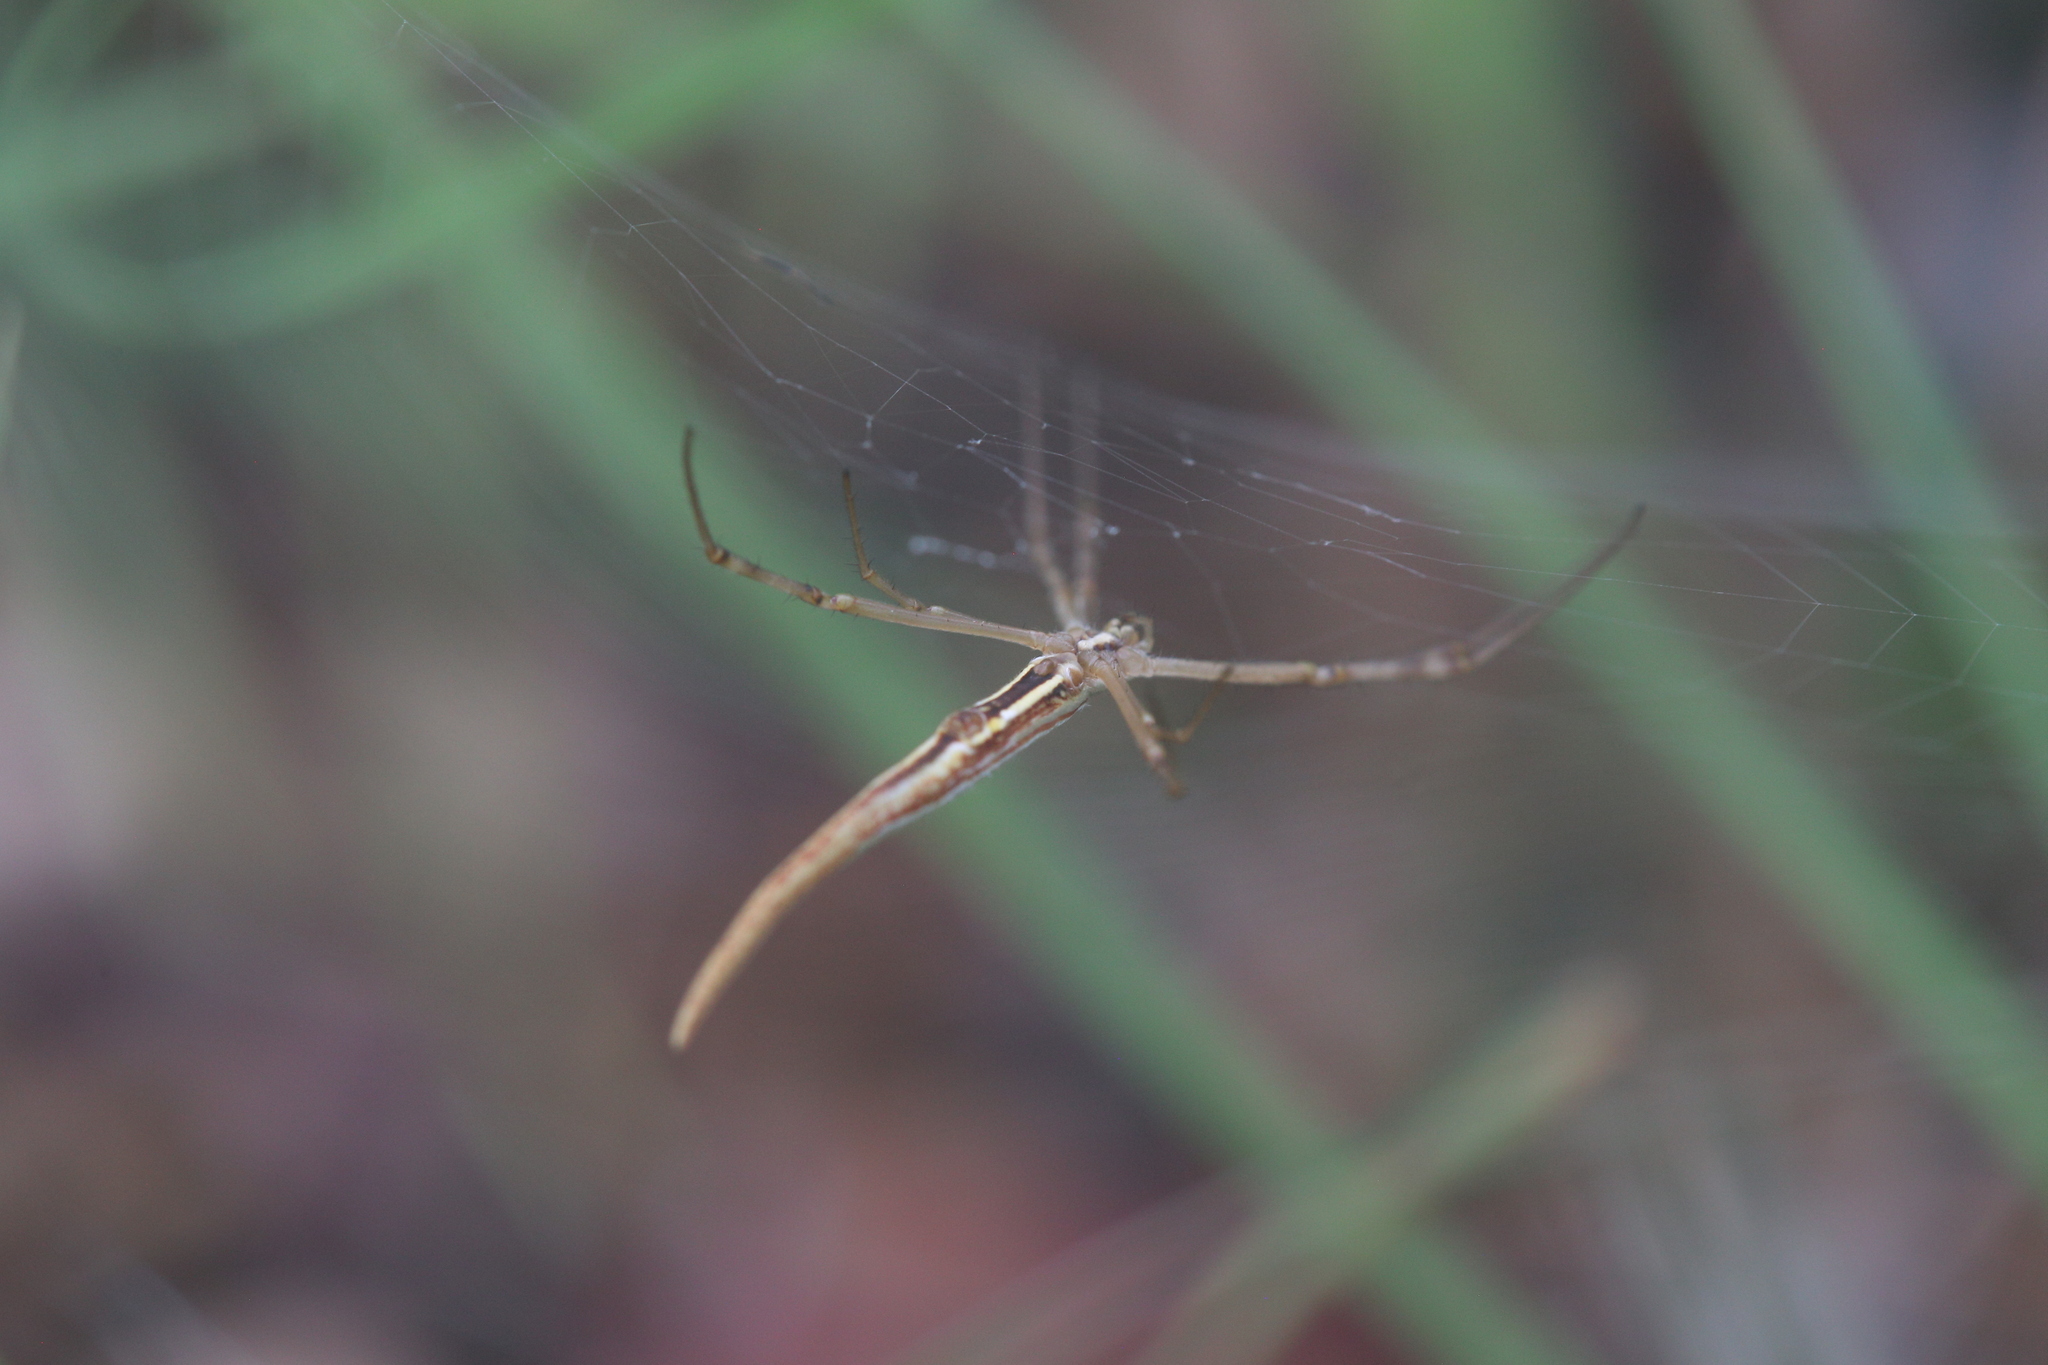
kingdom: Animalia
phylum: Arthropoda
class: Arachnida
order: Araneae
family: Araneidae
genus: Argiope
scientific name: Argiope protensa
